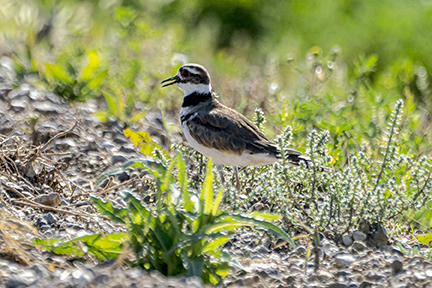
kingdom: Animalia
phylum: Chordata
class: Aves
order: Charadriiformes
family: Charadriidae
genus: Charadrius
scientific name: Charadrius vociferus
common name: Killdeer
